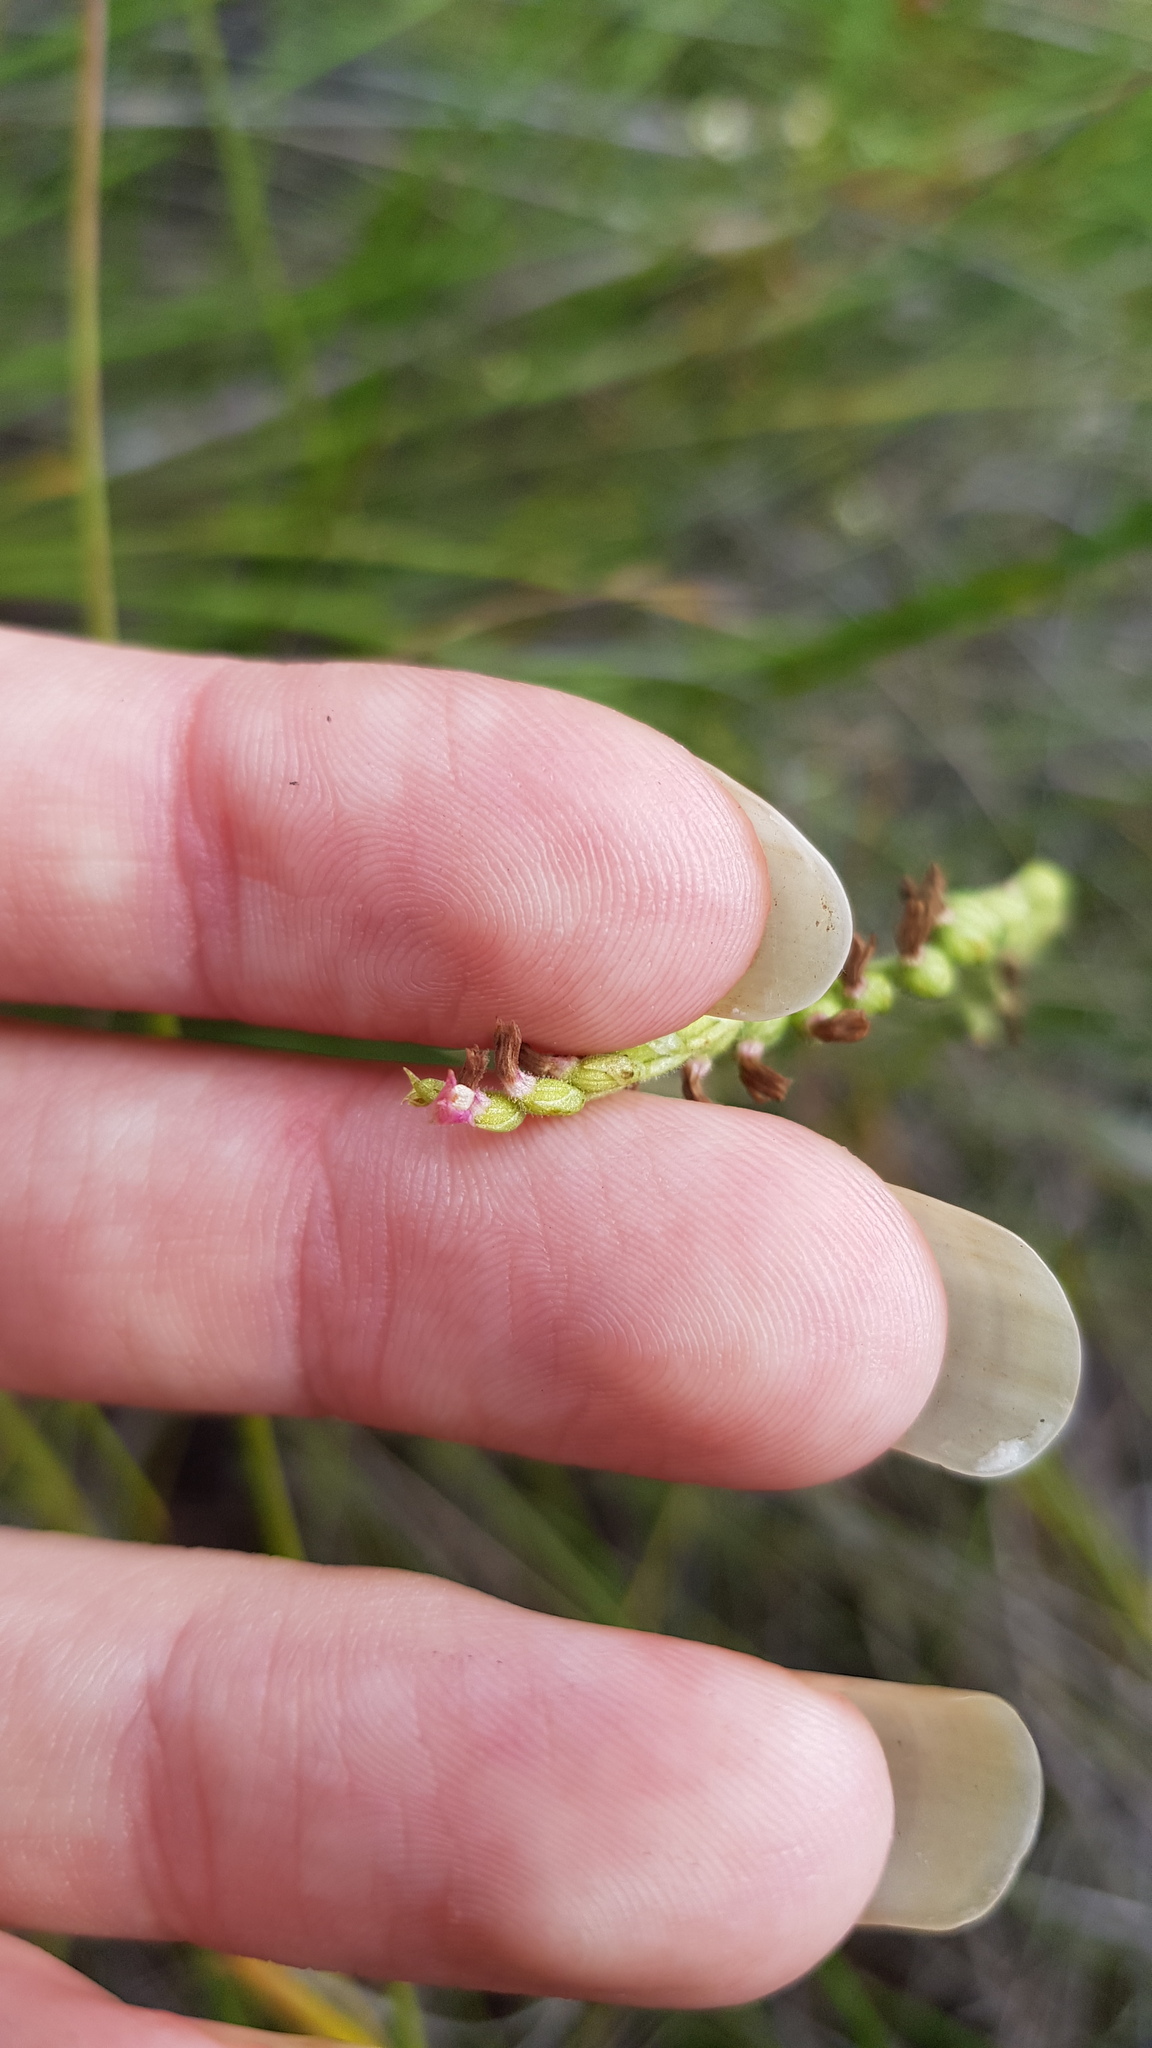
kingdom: Plantae
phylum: Tracheophyta
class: Liliopsida
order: Asparagales
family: Orchidaceae
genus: Spiranthes
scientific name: Spiranthes australis
